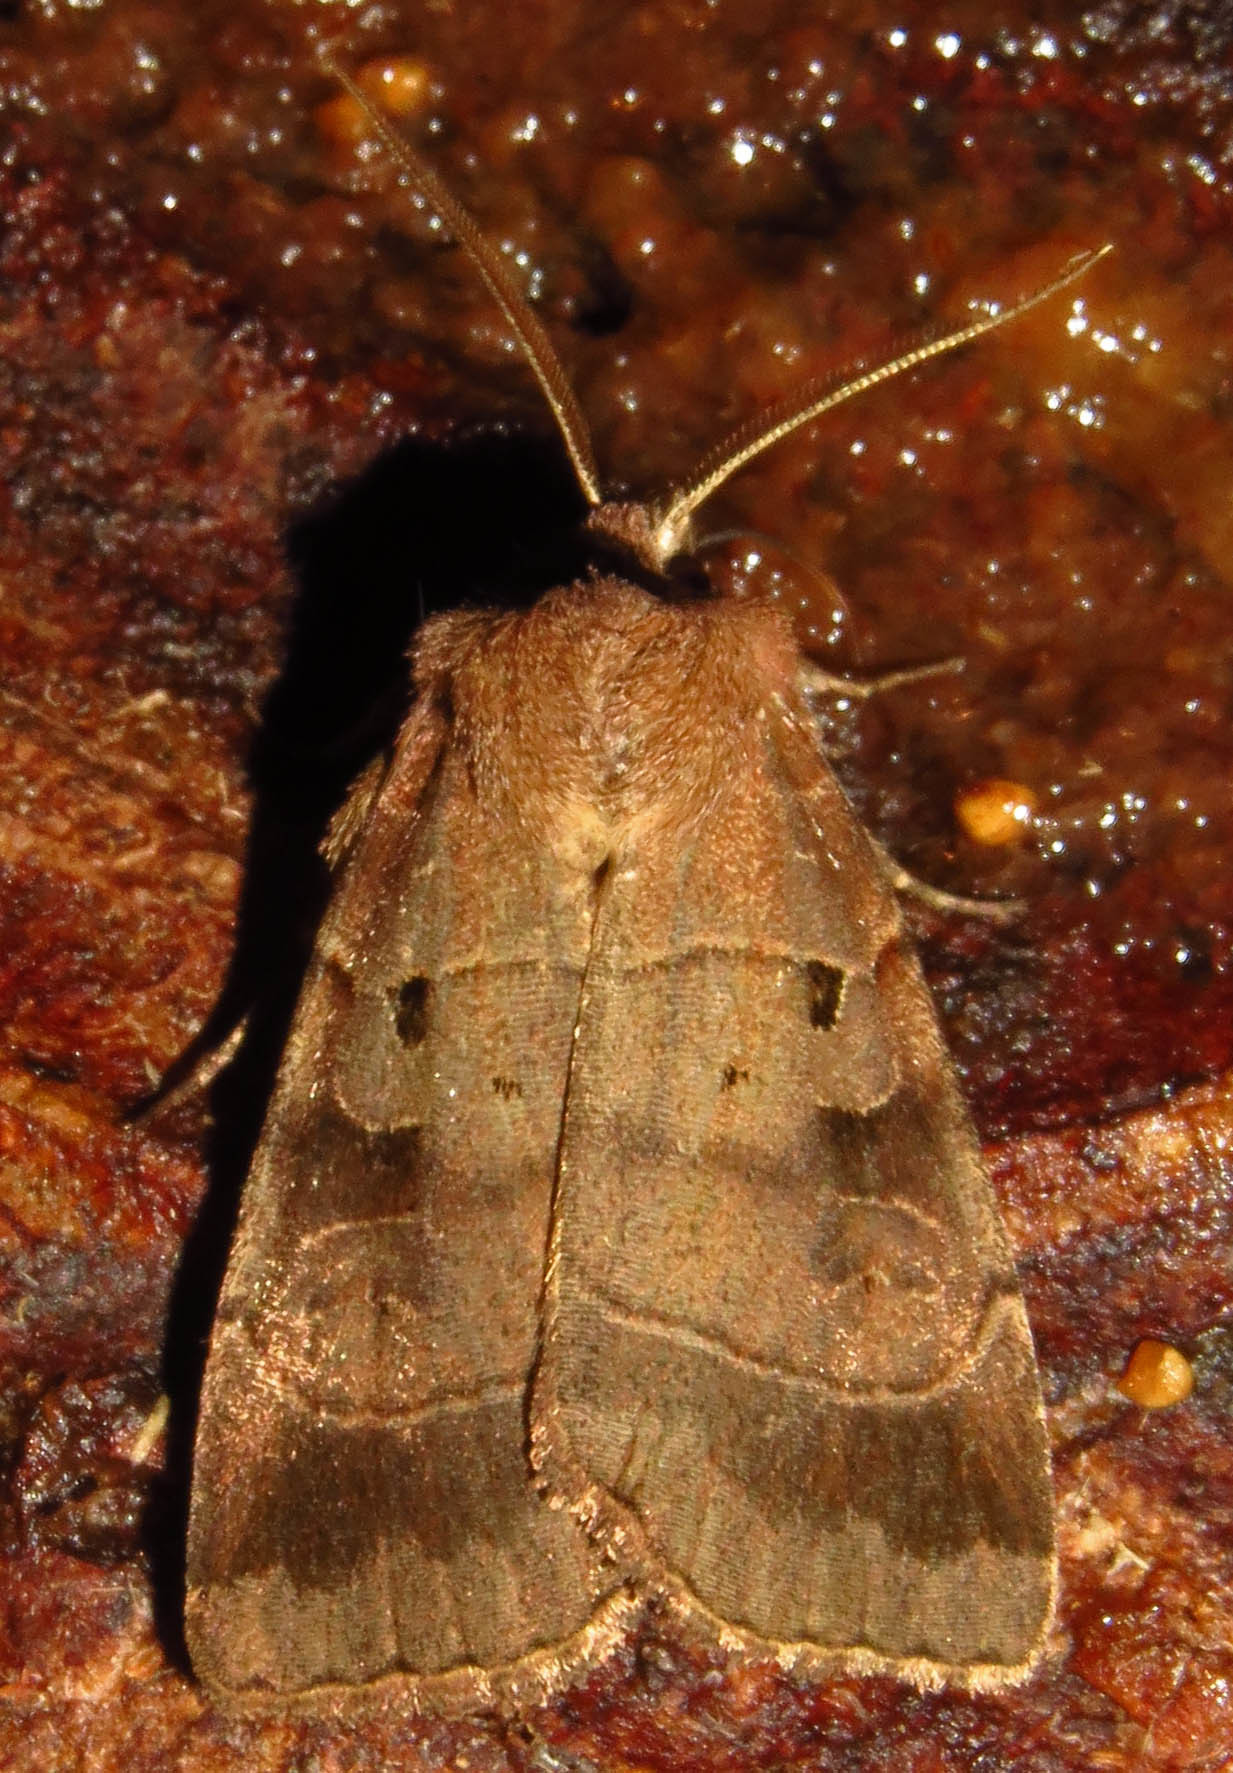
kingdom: Animalia
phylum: Arthropoda
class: Insecta
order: Lepidoptera
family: Noctuidae
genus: Agnorisma
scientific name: Agnorisma badinodis
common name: Pale-banded dart
